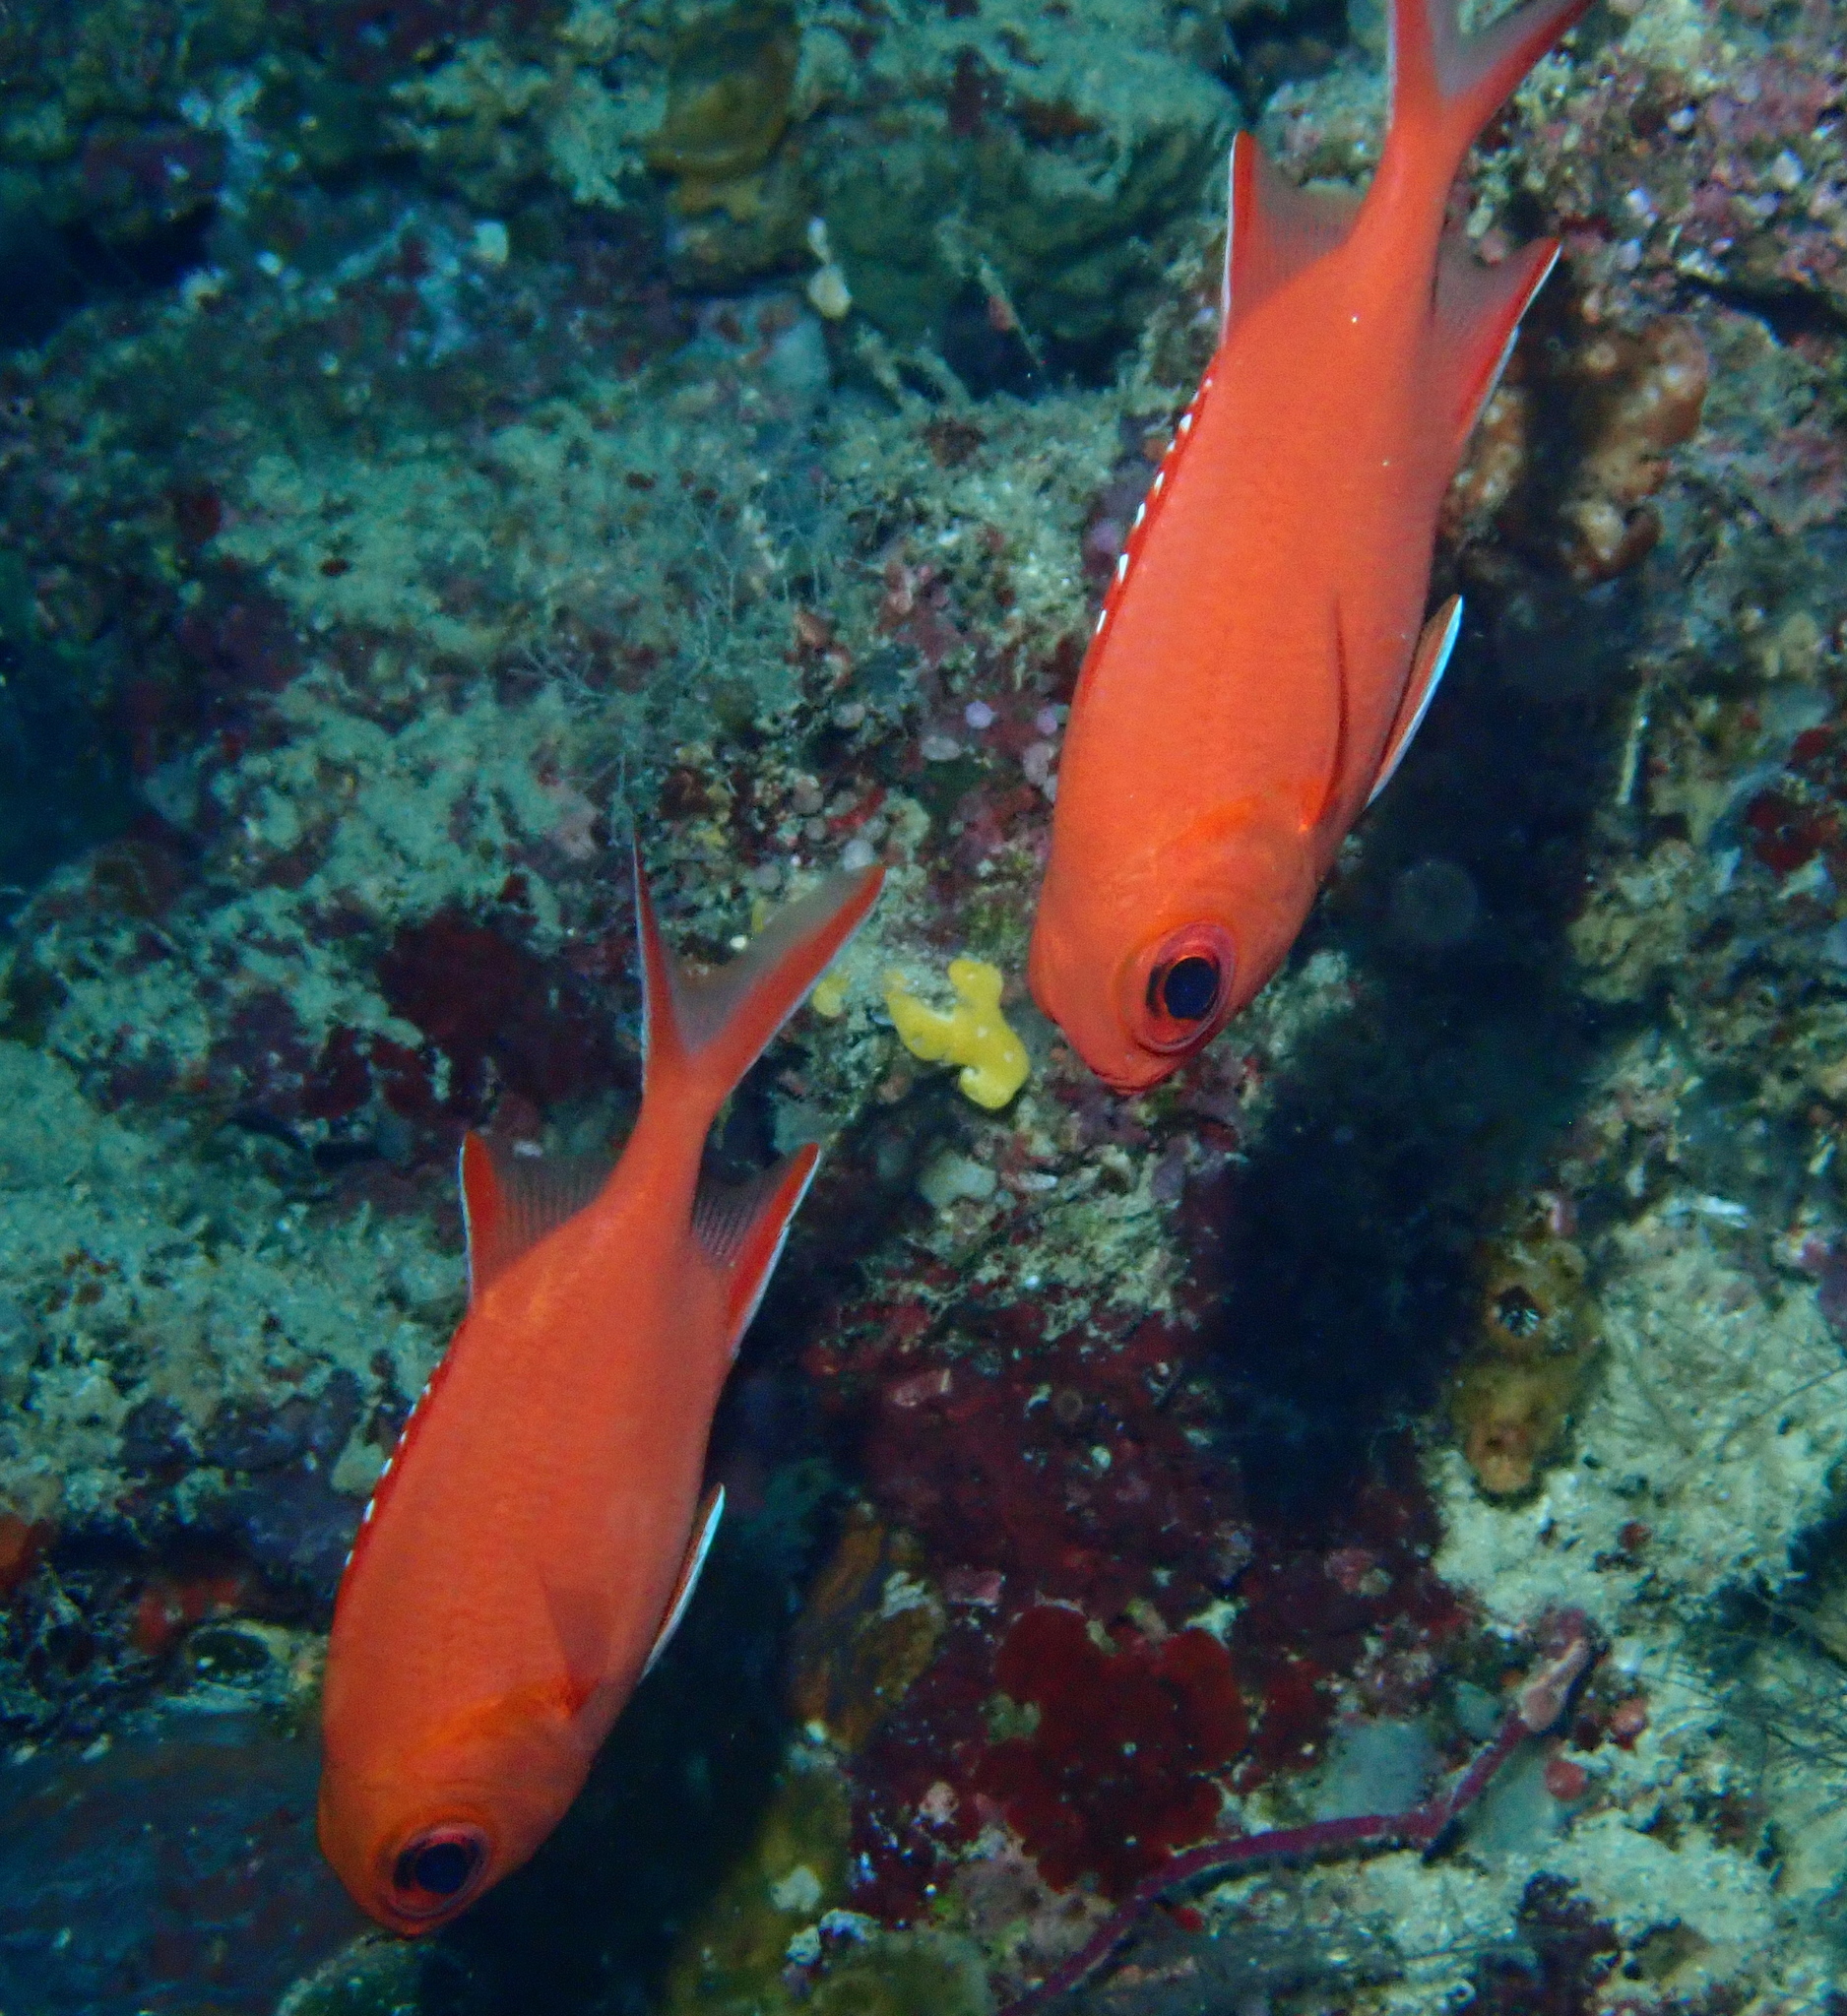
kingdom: Animalia
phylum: Chordata
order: Beryciformes
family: Holocentridae
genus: Myripristis
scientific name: Myripristis vittata
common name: Immaculate squirrelfish
